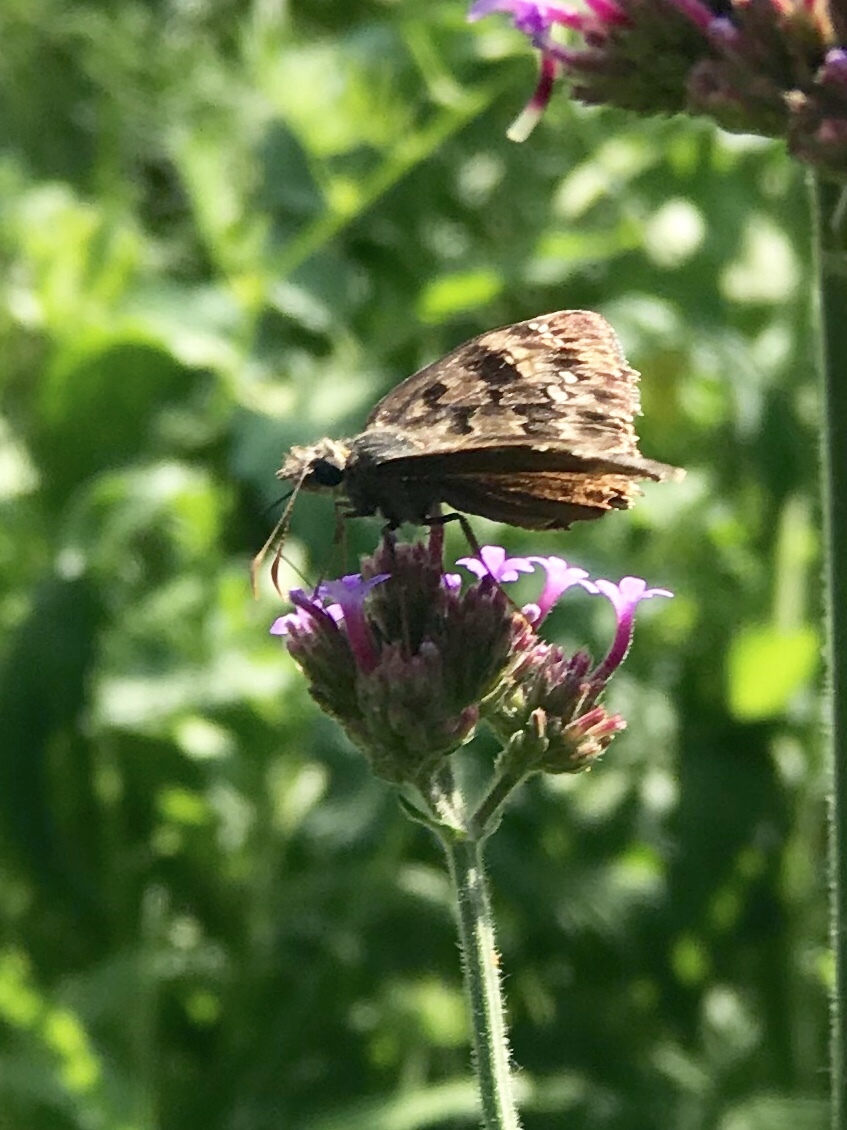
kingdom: Animalia
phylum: Arthropoda
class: Insecta
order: Lepidoptera
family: Hesperiidae
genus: Erynnis
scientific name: Erynnis horatius
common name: Horace's duskywing
